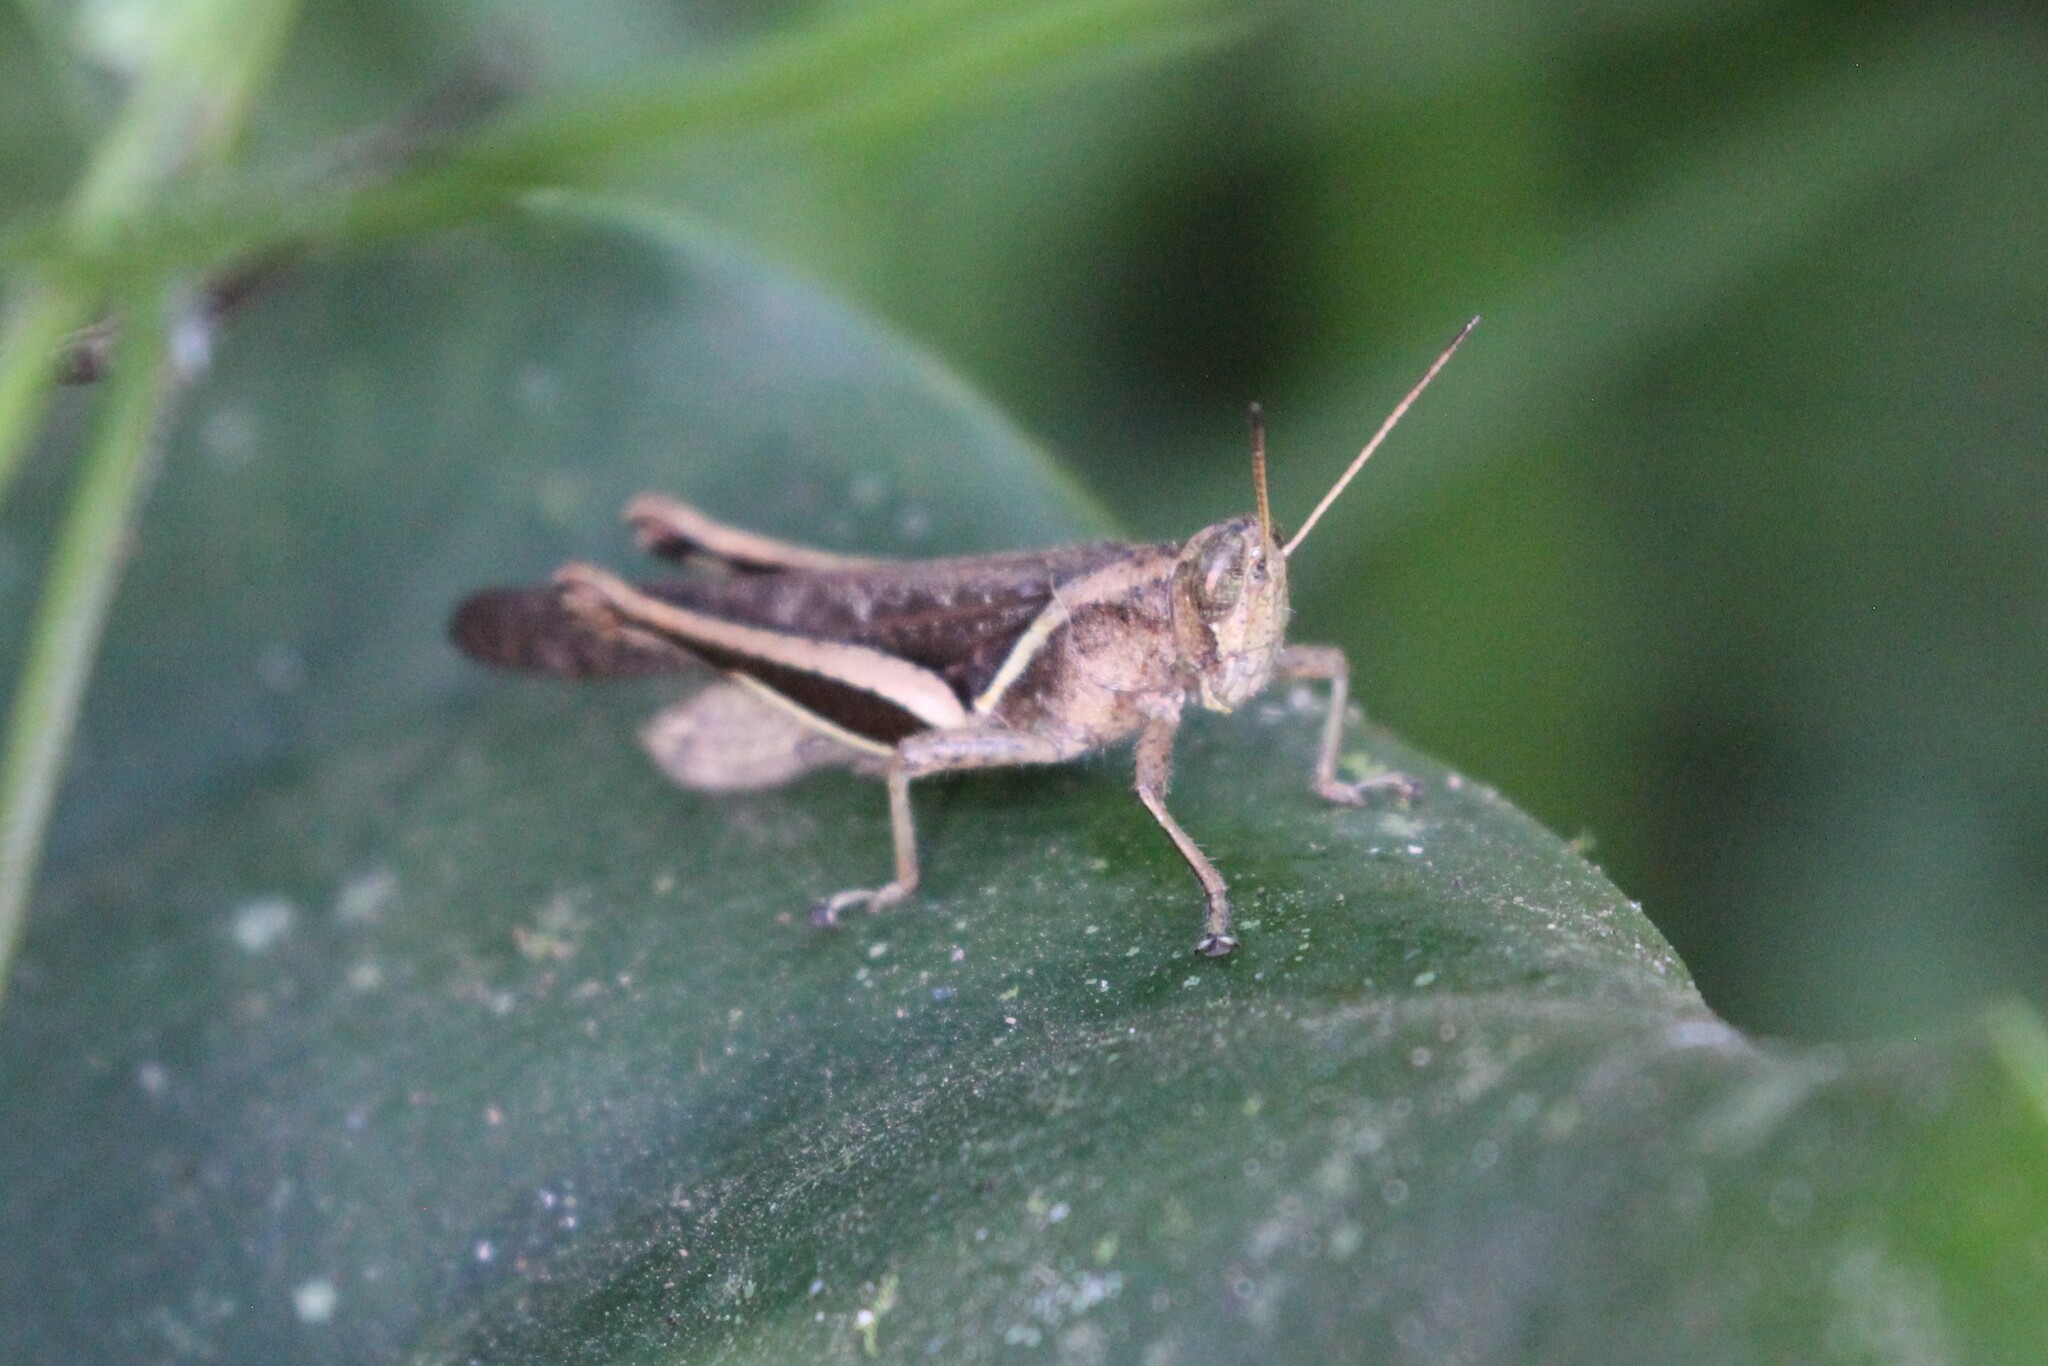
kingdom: Animalia
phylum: Arthropoda
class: Insecta
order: Orthoptera
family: Acrididae
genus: Abracris
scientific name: Abracris flavolineata
